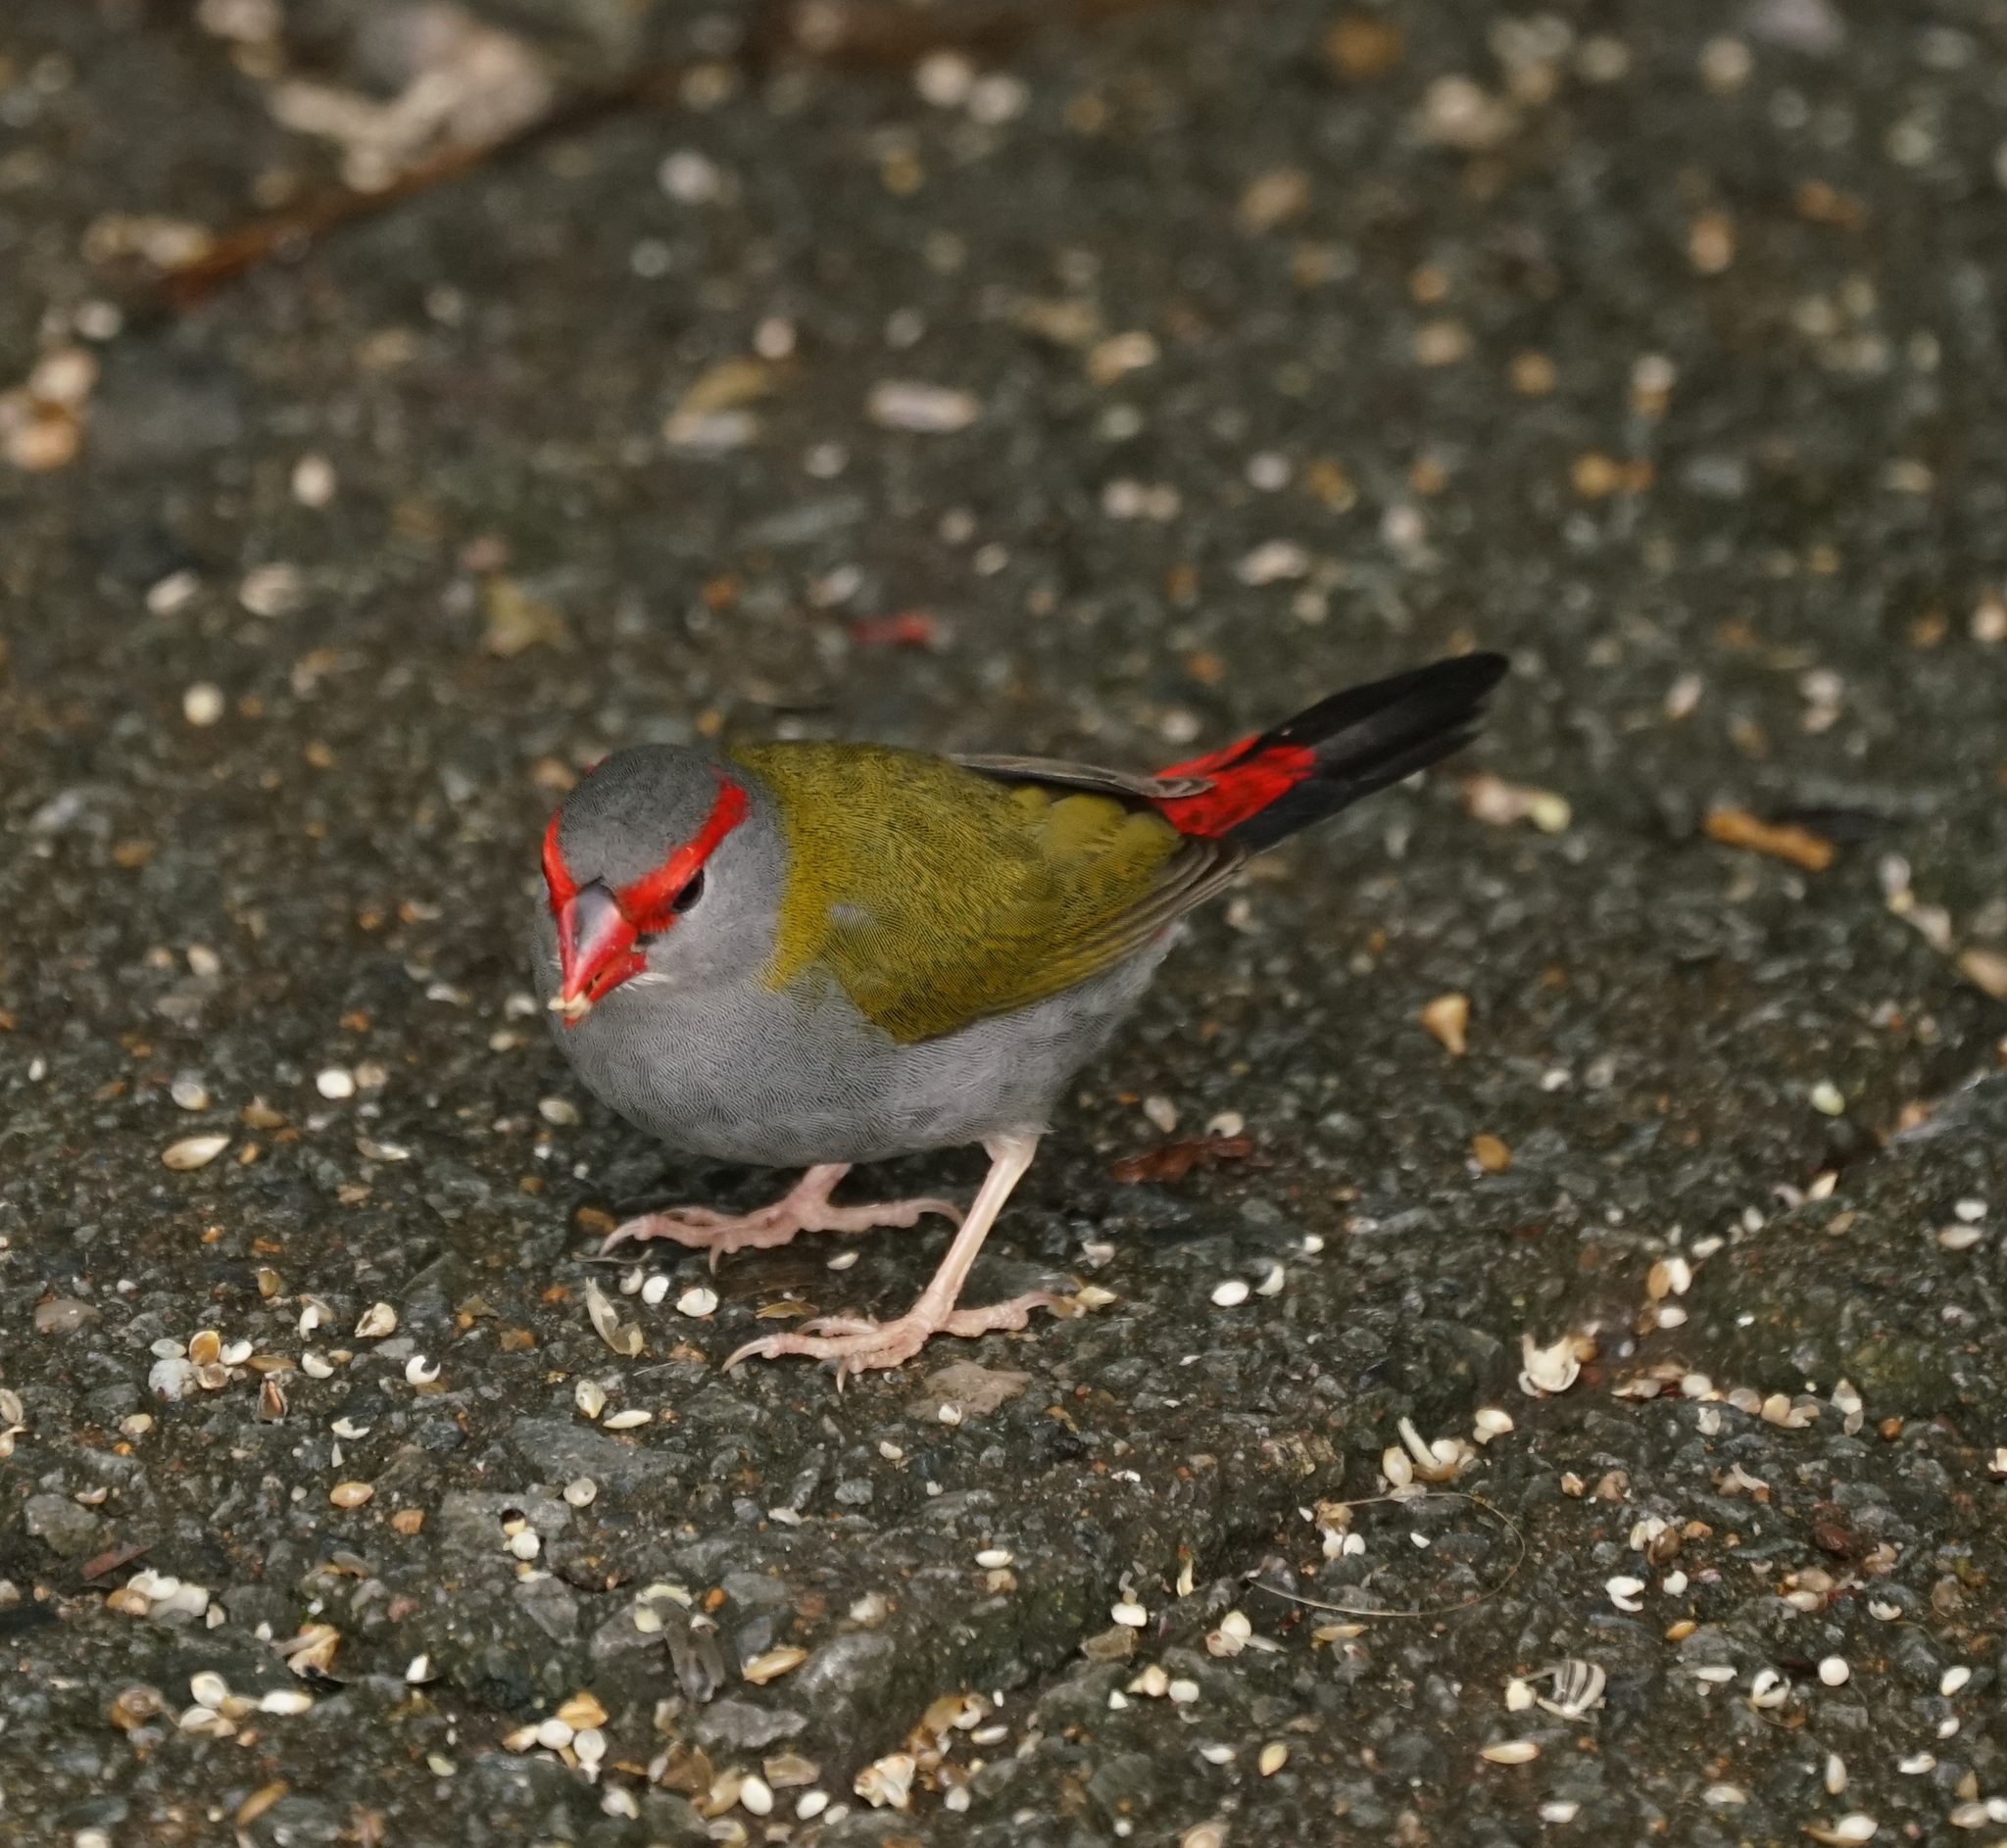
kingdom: Animalia
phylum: Chordata
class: Aves
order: Passeriformes
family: Estrildidae
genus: Neochmia
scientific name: Neochmia temporalis
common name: Red-browed finch
